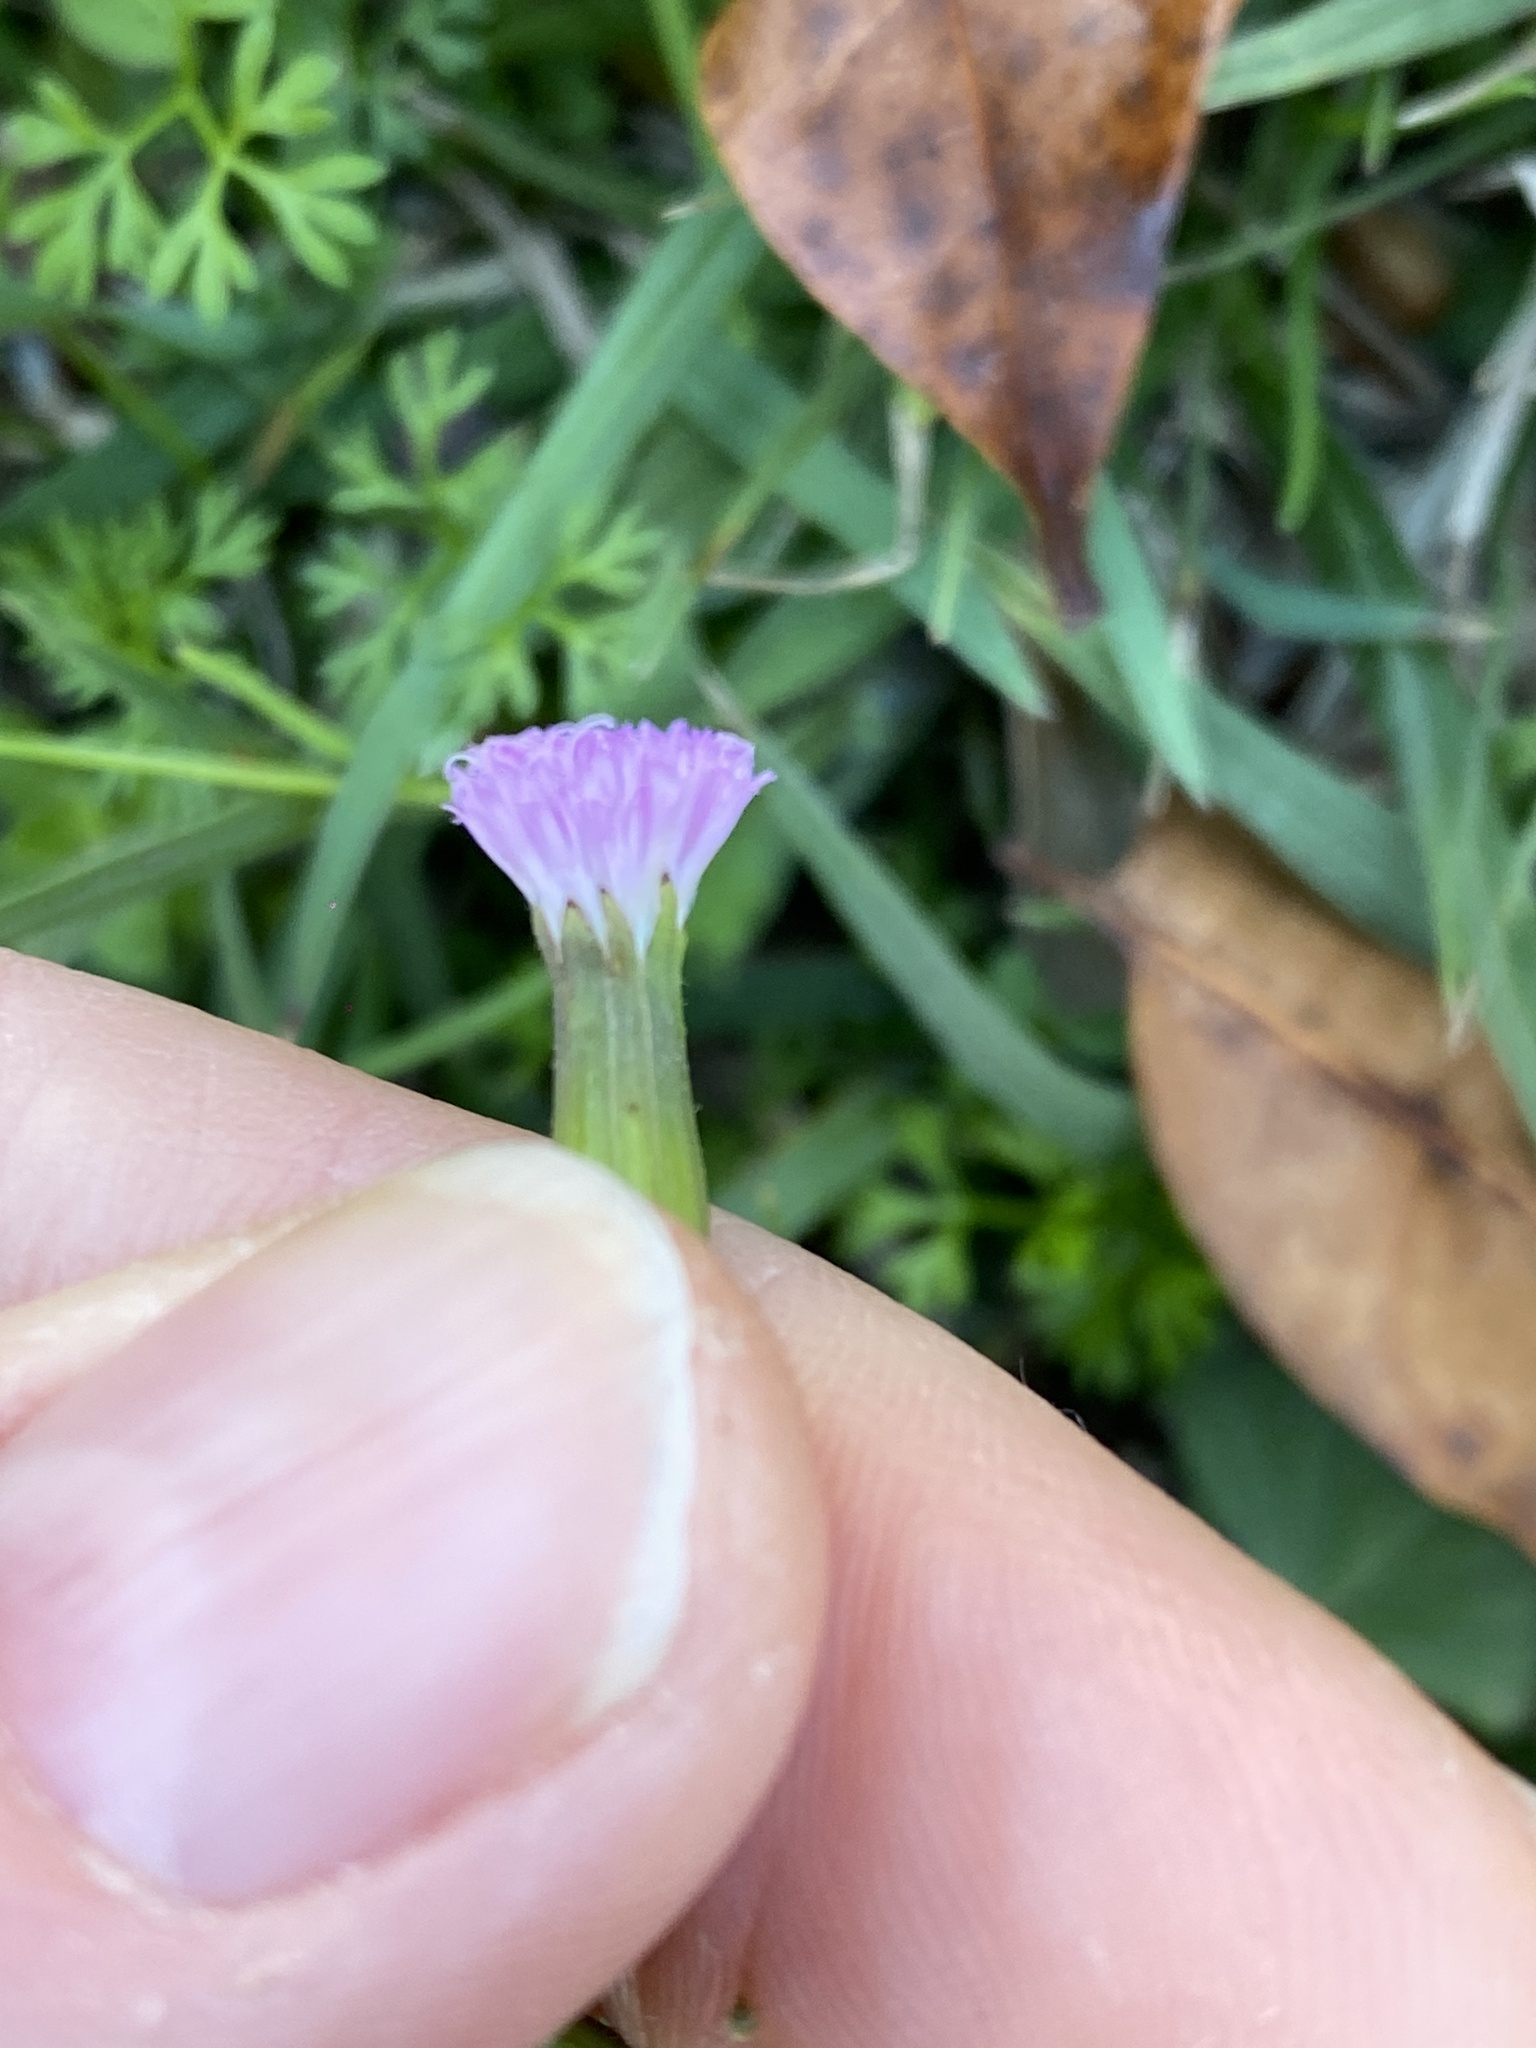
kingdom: Plantae
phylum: Tracheophyta
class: Magnoliopsida
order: Asterales
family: Asteraceae
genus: Emilia
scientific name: Emilia javanica
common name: Tassel-flower
